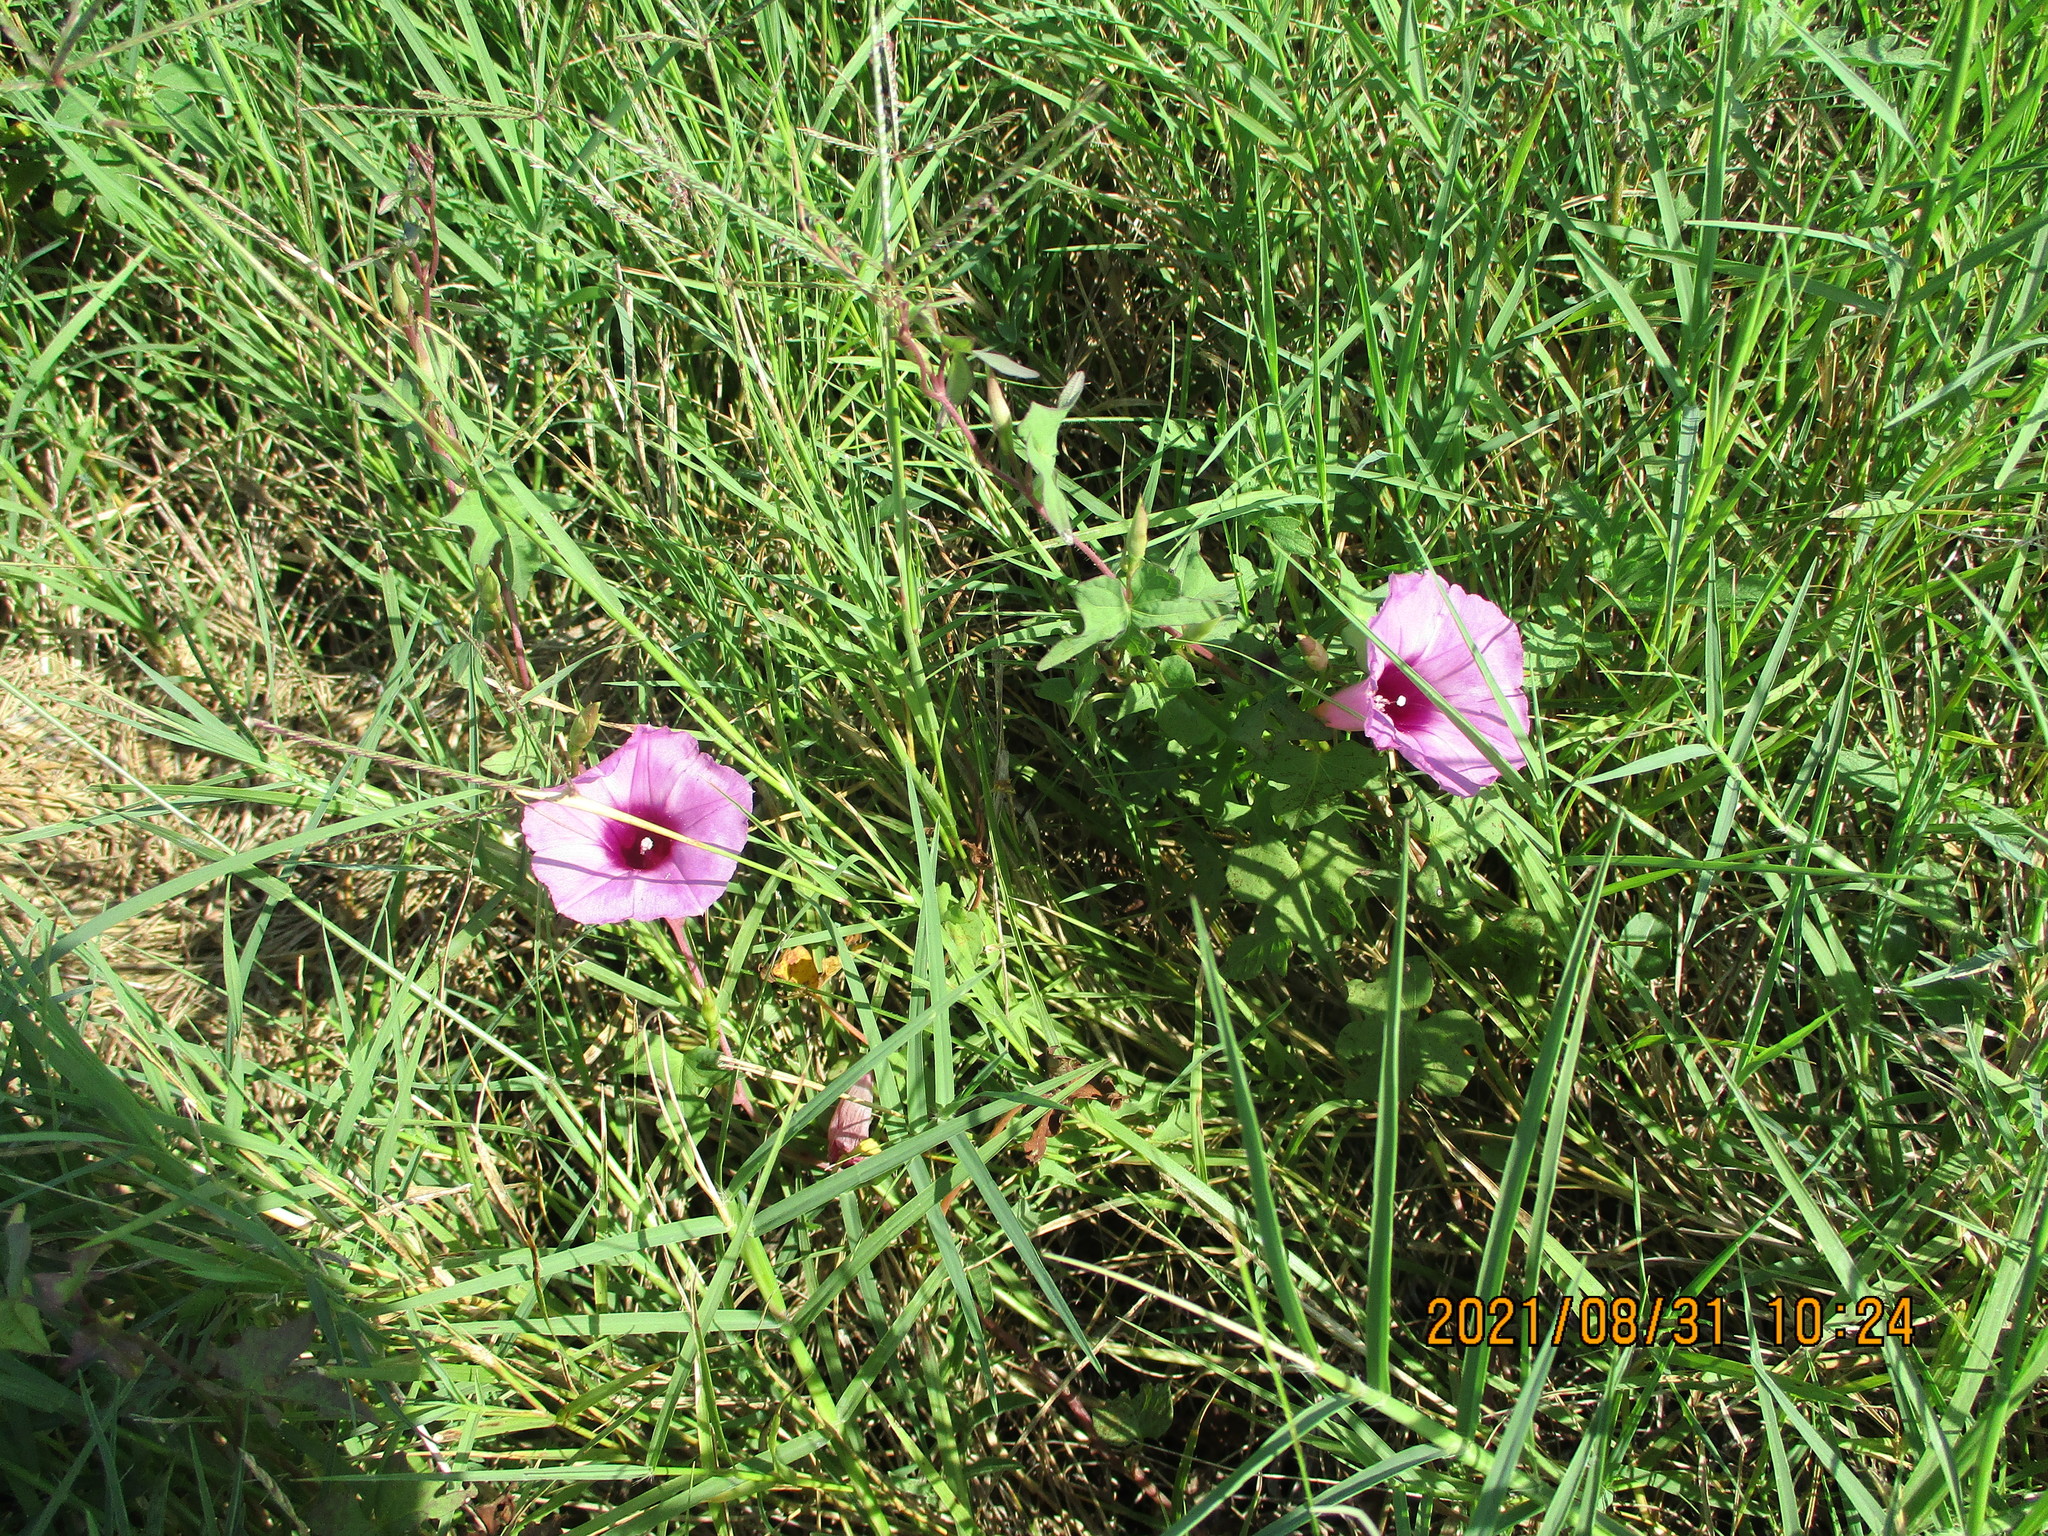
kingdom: Plantae
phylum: Tracheophyta
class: Magnoliopsida
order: Solanales
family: Convolvulaceae
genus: Ipomoea
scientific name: Ipomoea cordatotriloba
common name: Cotton morning glory
